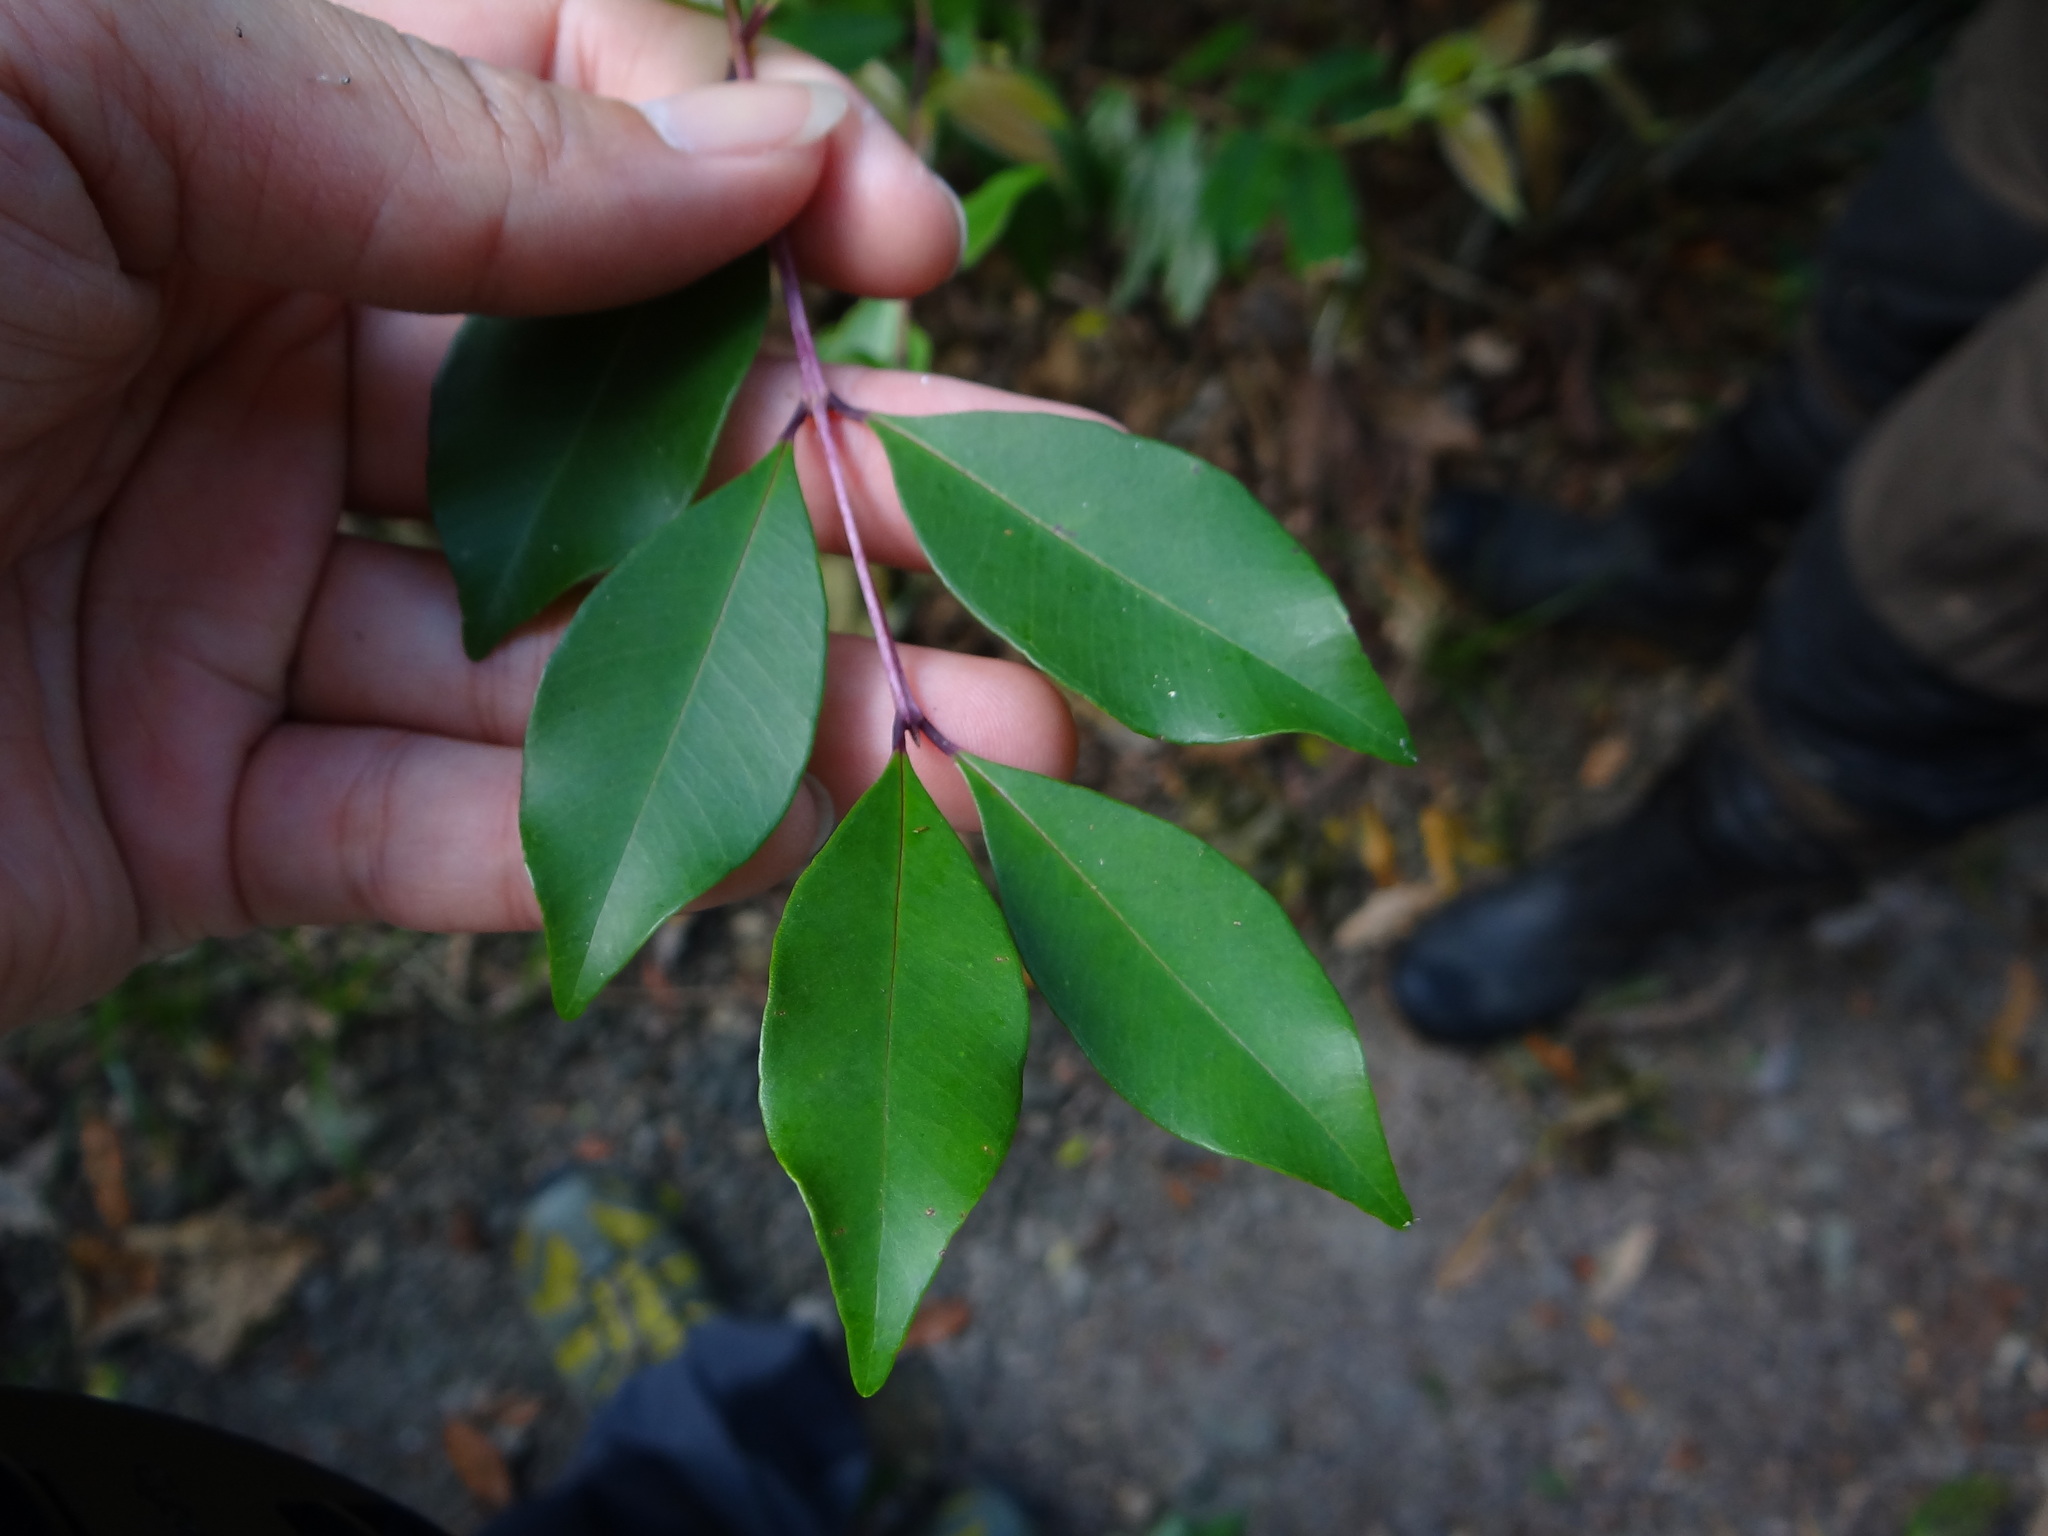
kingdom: Plantae
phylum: Tracheophyta
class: Magnoliopsida
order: Myrtales
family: Myrtaceae
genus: Syzygium
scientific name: Syzygium formosanum
